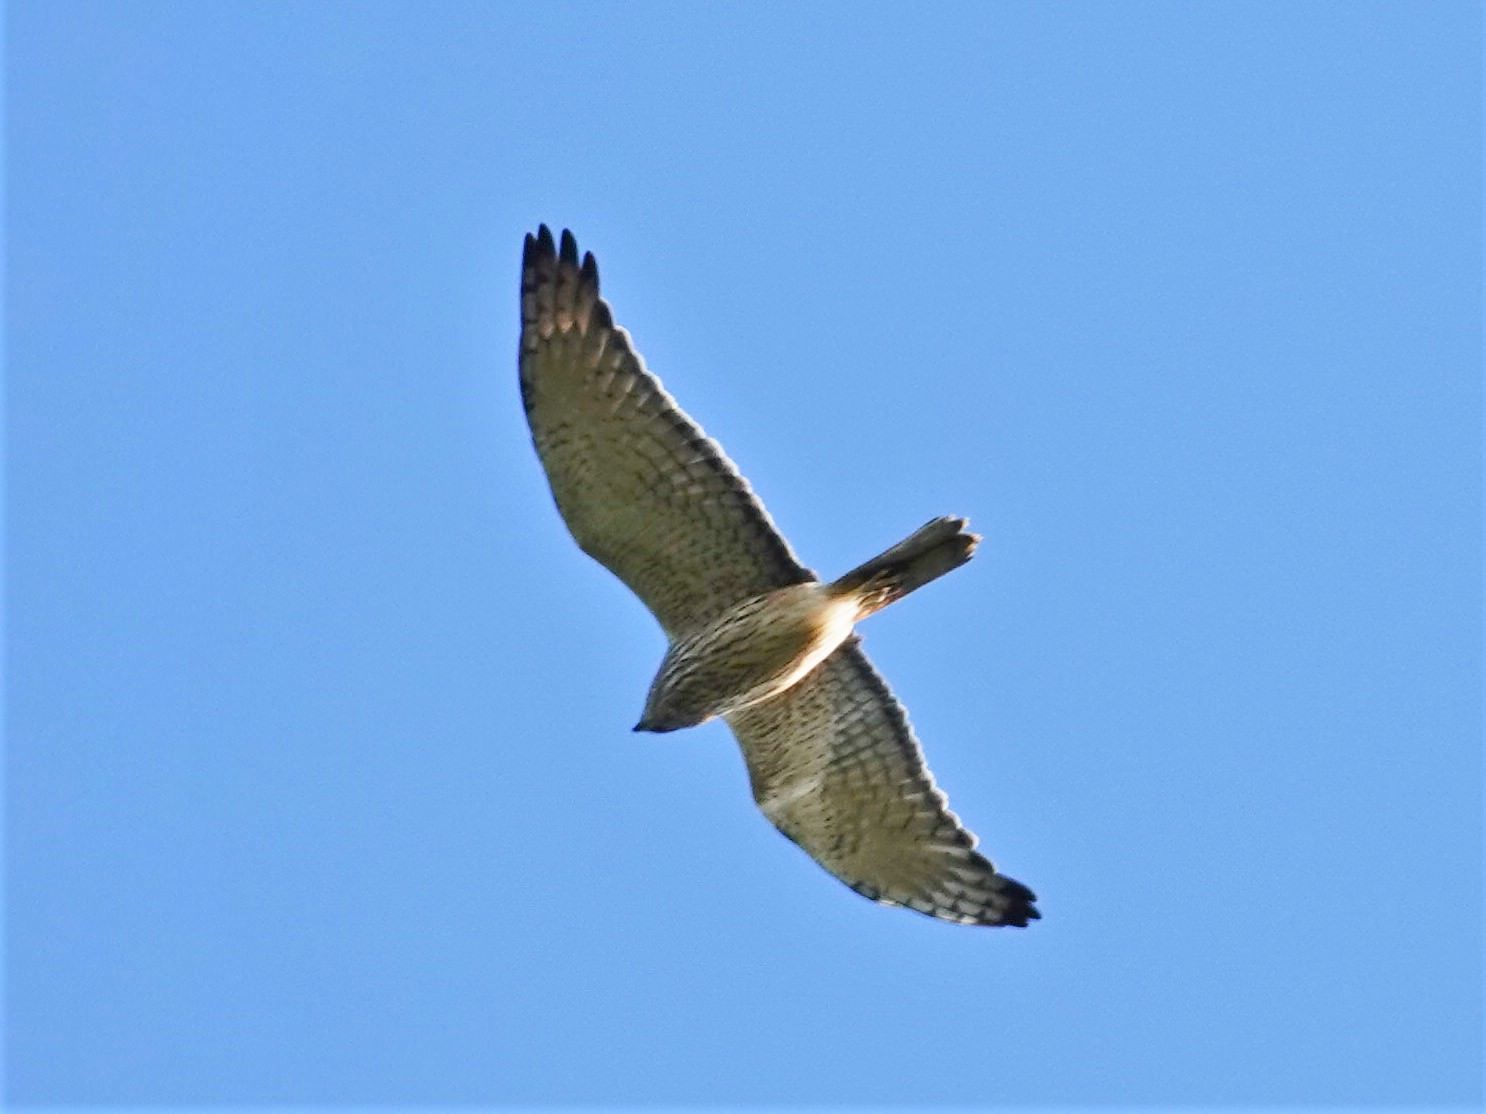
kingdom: Animalia
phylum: Chordata
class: Aves
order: Accipitriformes
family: Accipitridae
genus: Circus
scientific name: Circus approximans
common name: Swamp harrier
